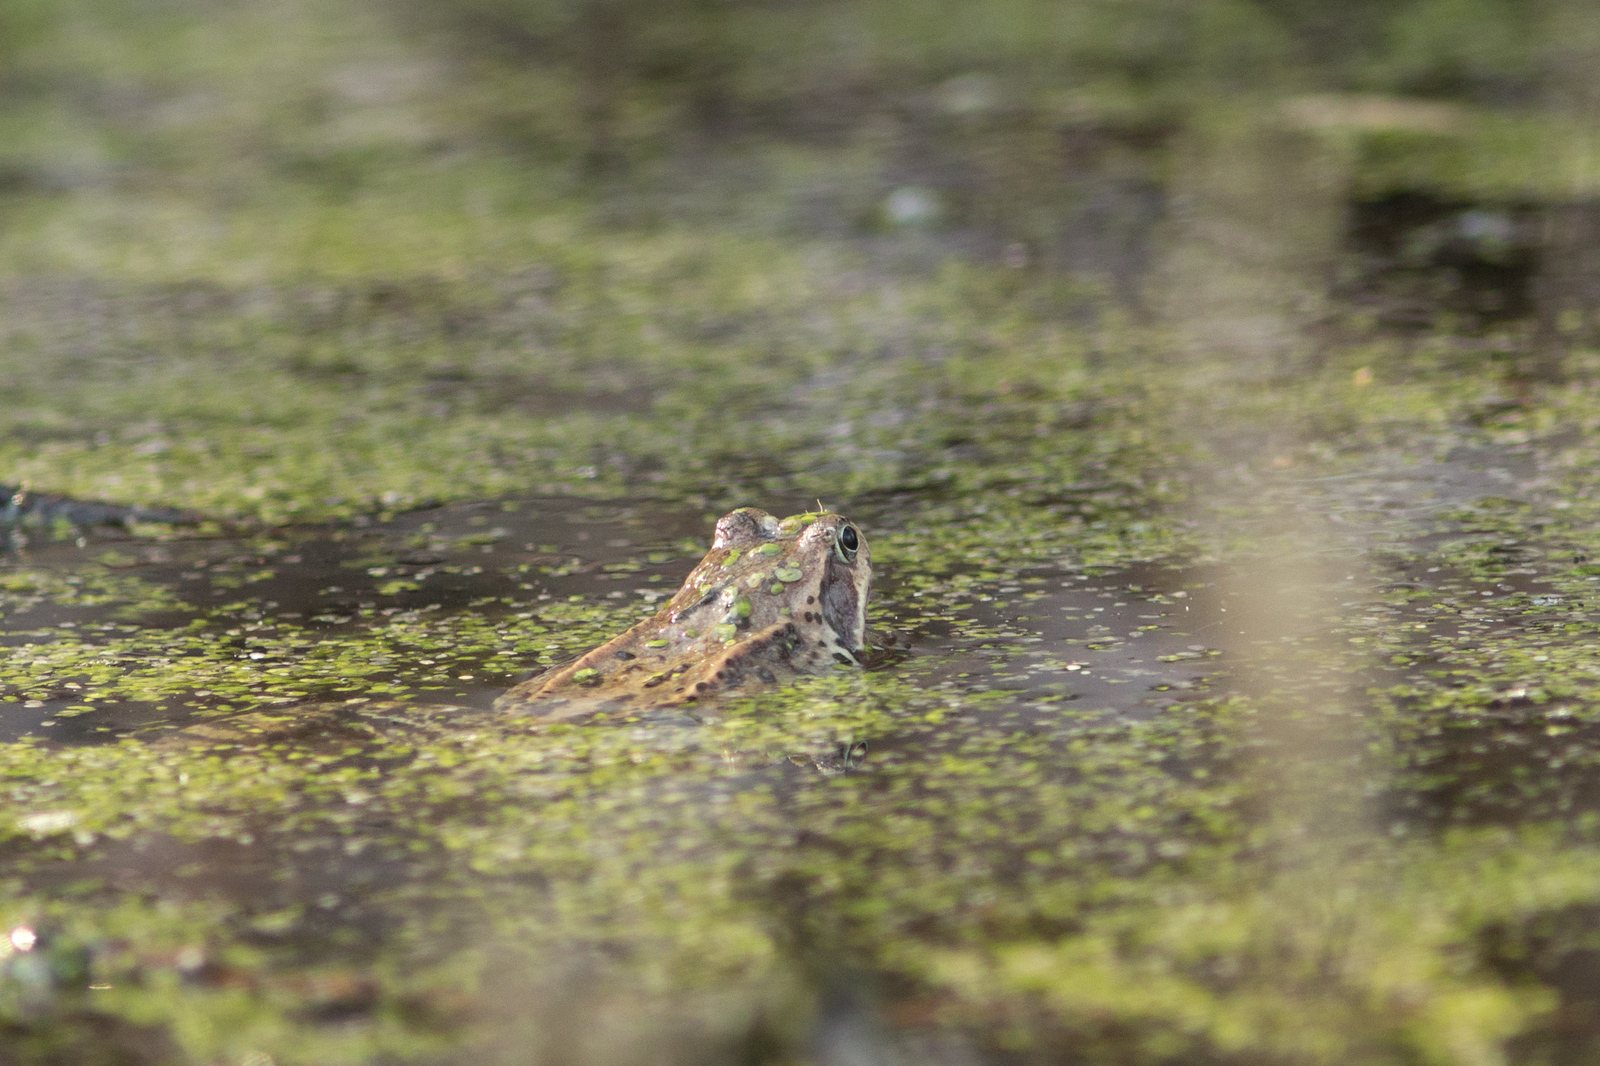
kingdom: Animalia
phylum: Chordata
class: Amphibia
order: Anura
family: Ranidae
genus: Rana
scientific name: Rana temporaria
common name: Common frog
